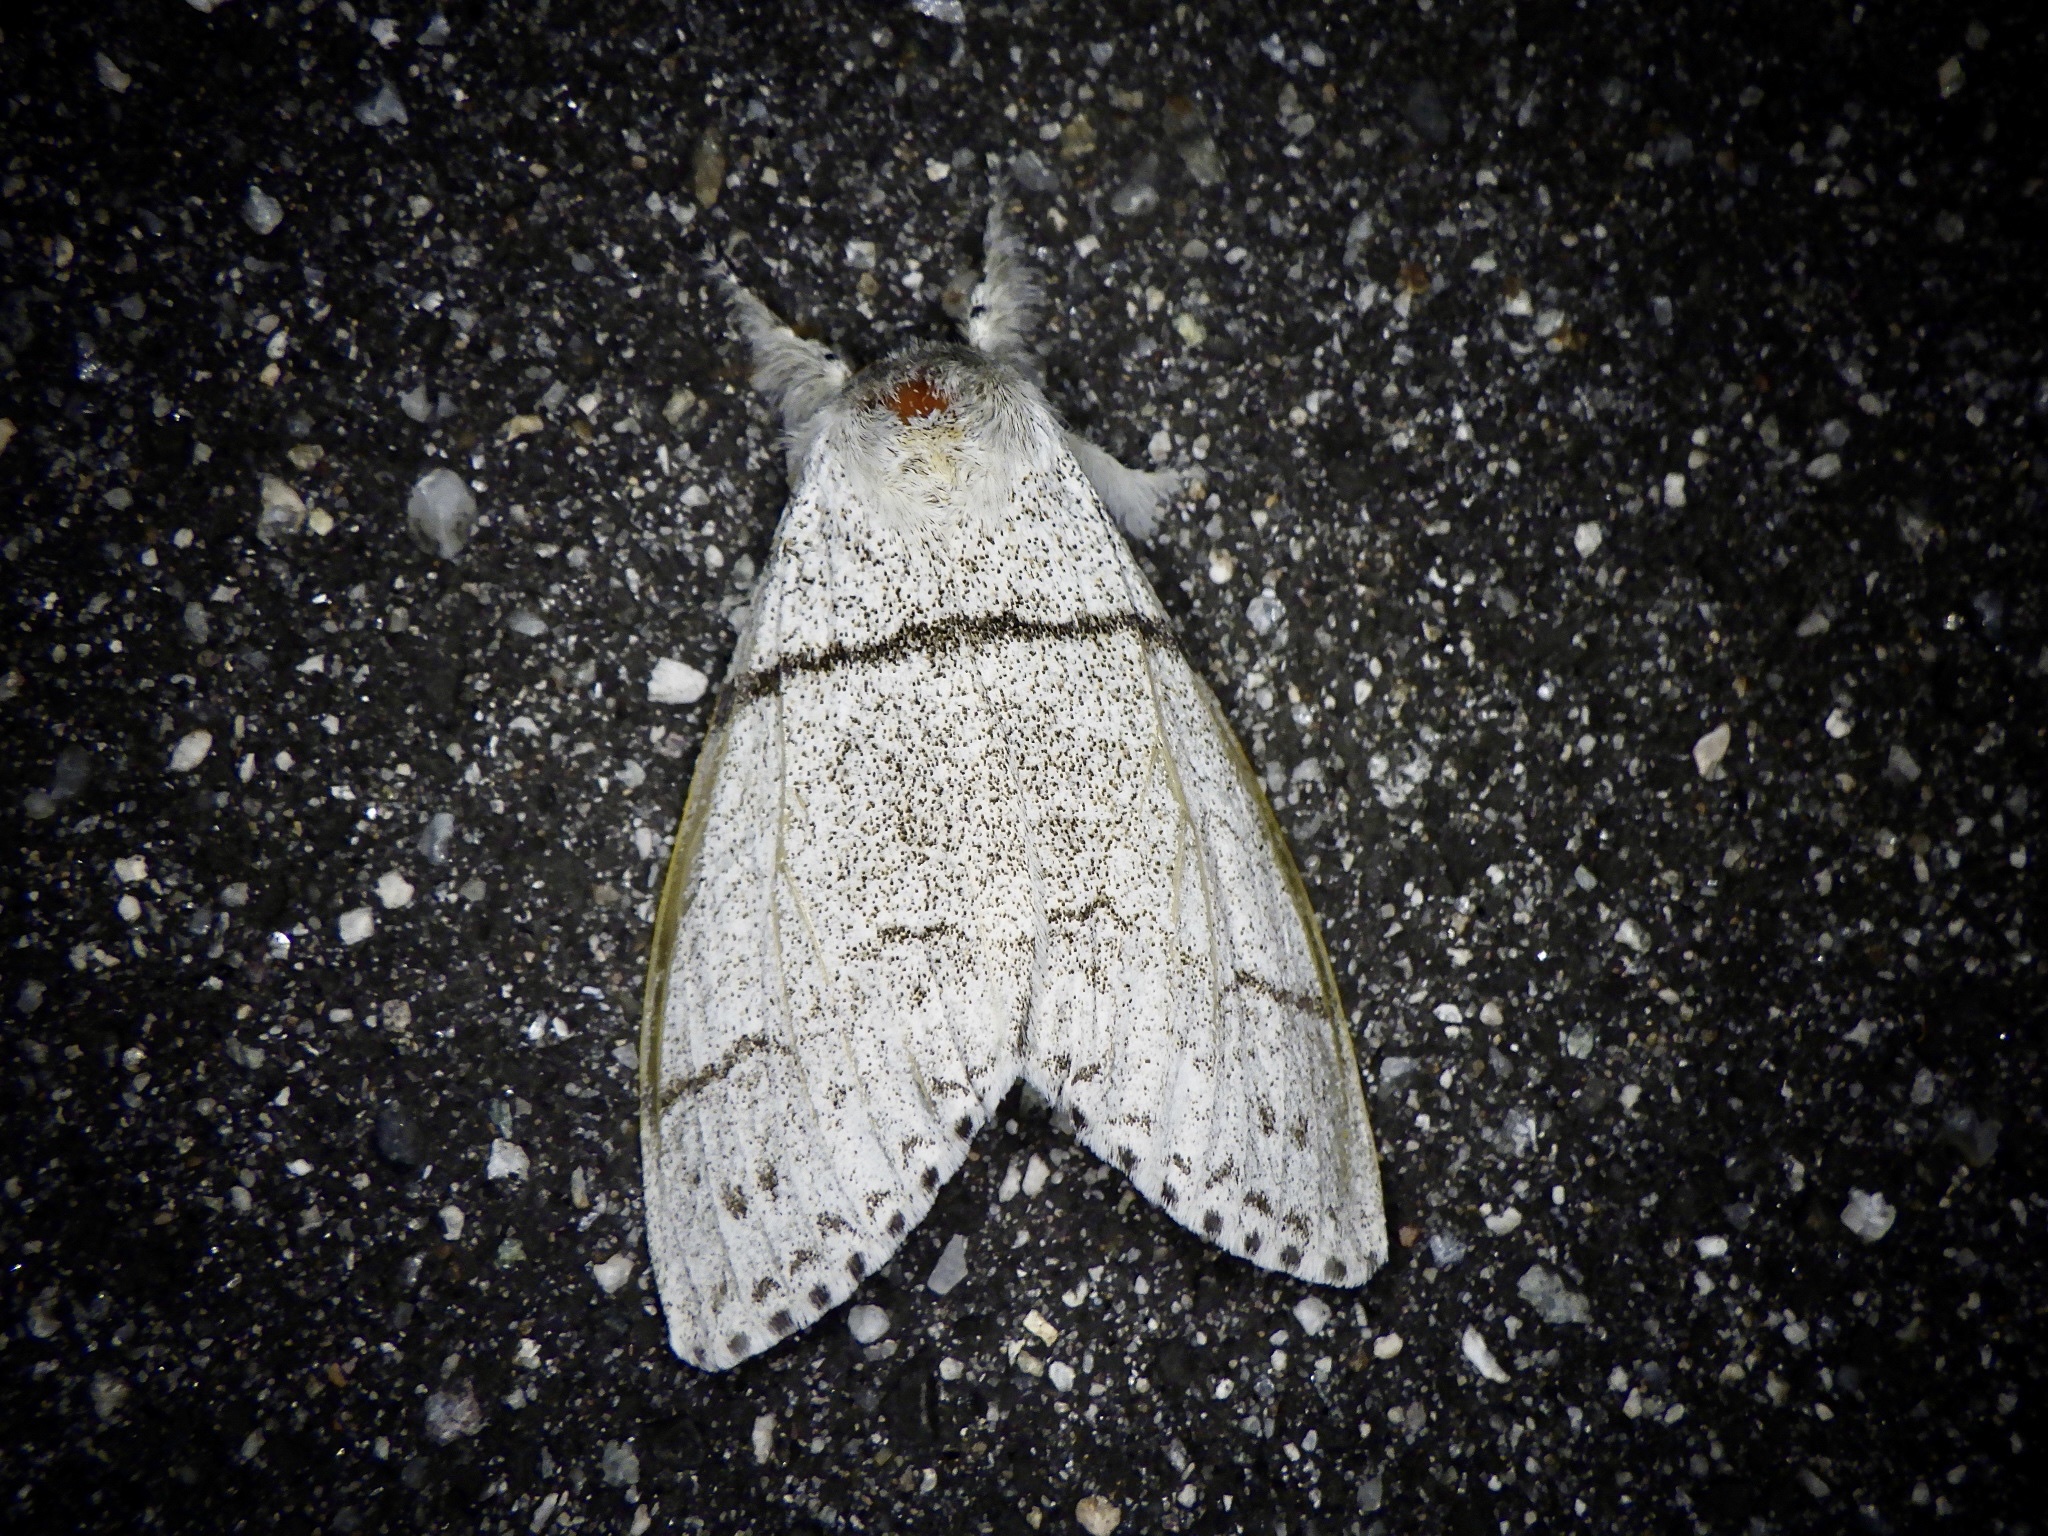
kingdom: Animalia
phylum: Arthropoda
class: Insecta
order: Lepidoptera
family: Erebidae
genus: Calliteara
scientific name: Calliteara
